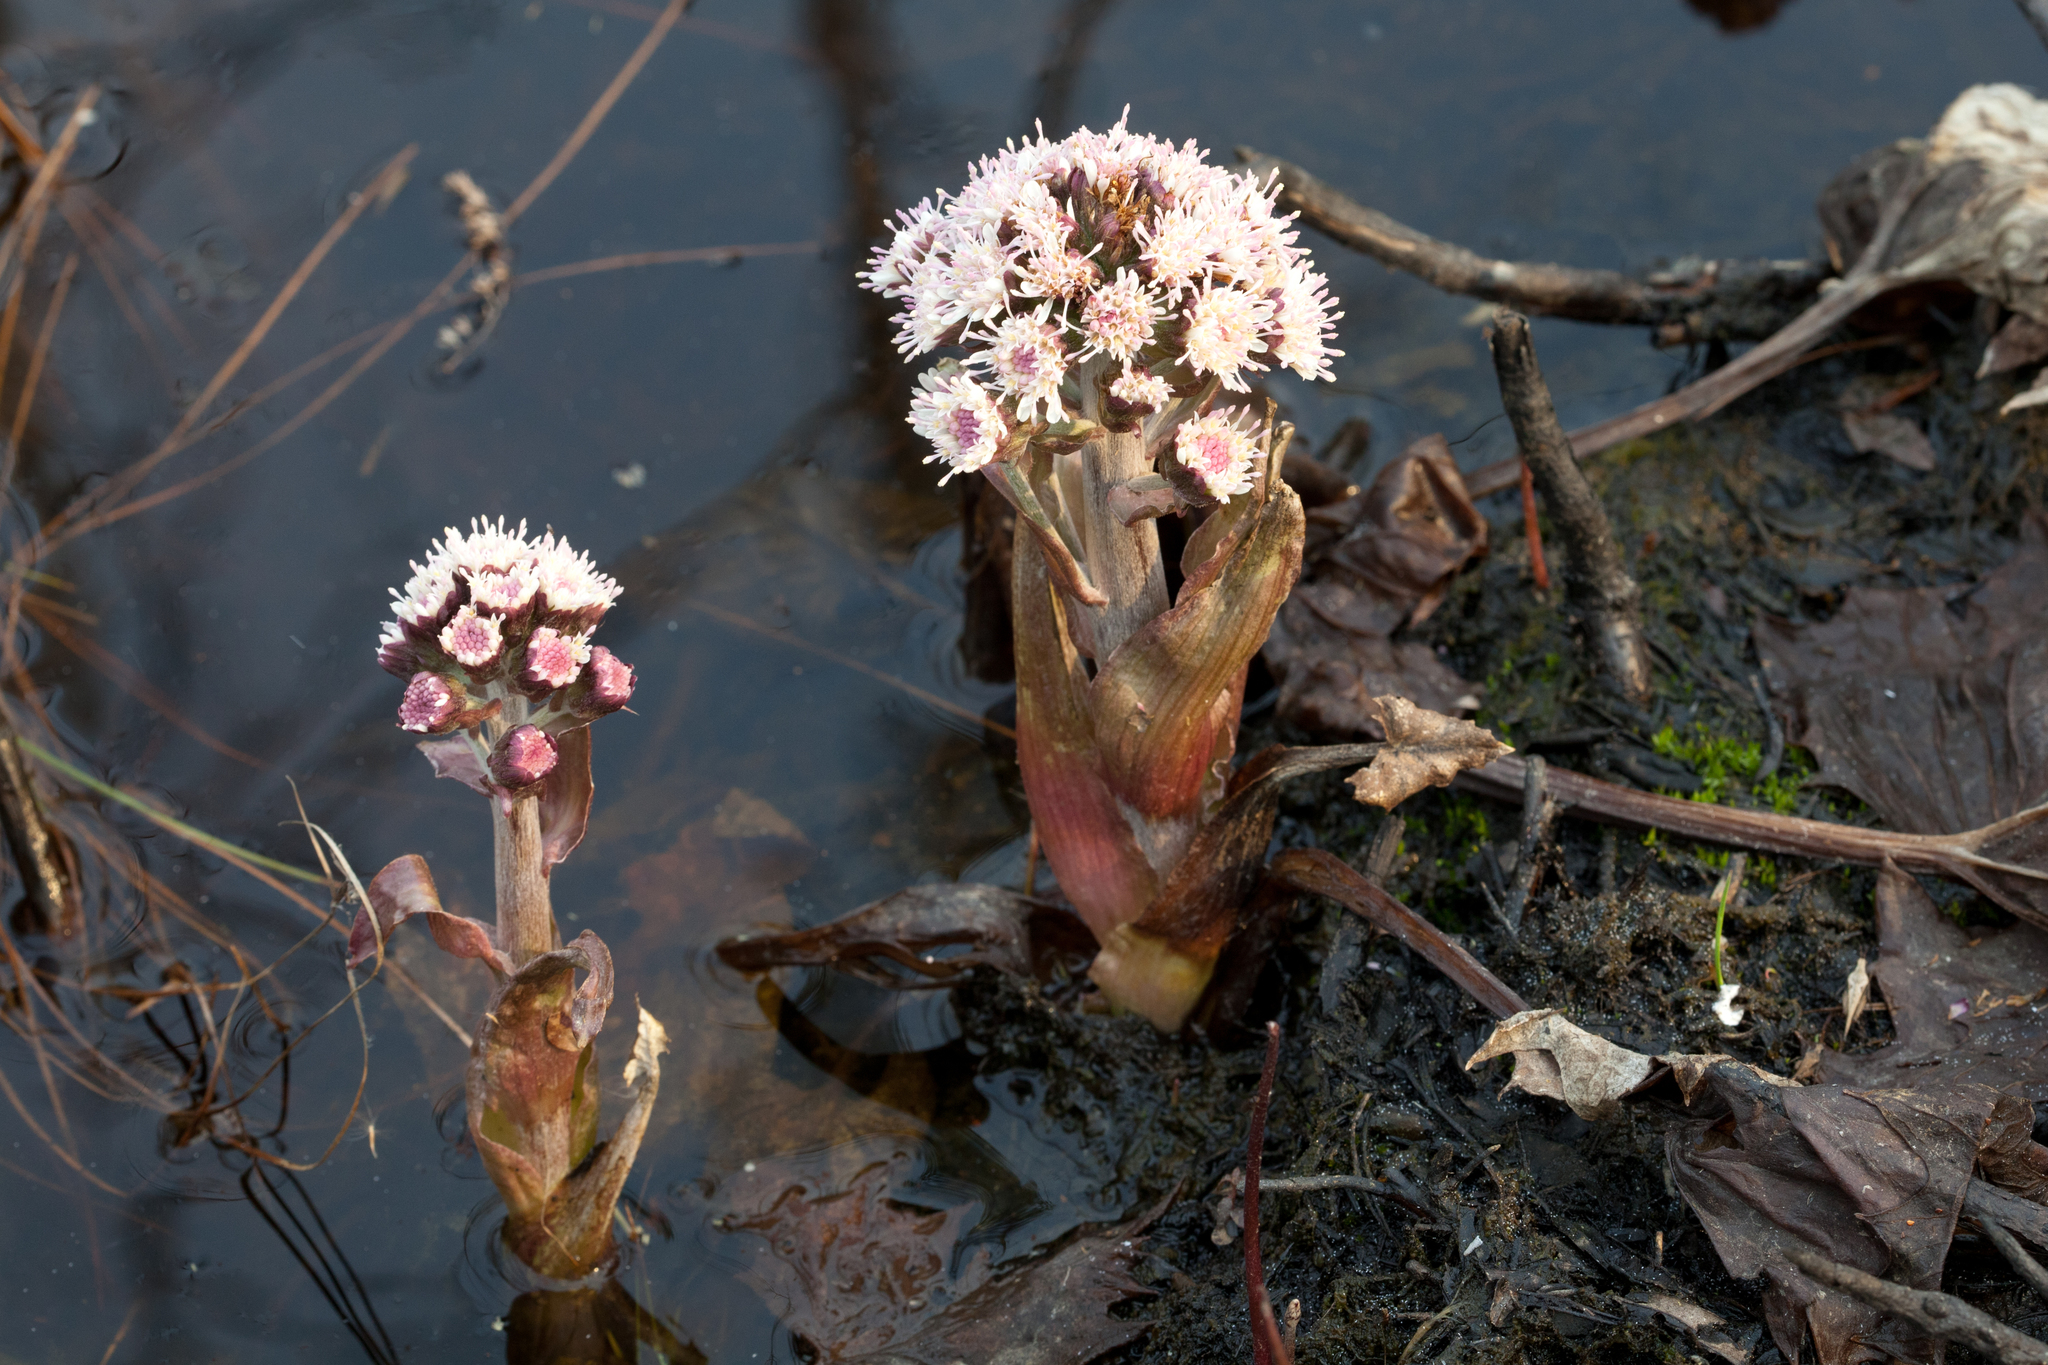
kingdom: Plantae
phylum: Tracheophyta
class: Magnoliopsida
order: Asterales
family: Asteraceae
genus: Petasites
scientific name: Petasites frigidus
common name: Arctic butterbur
